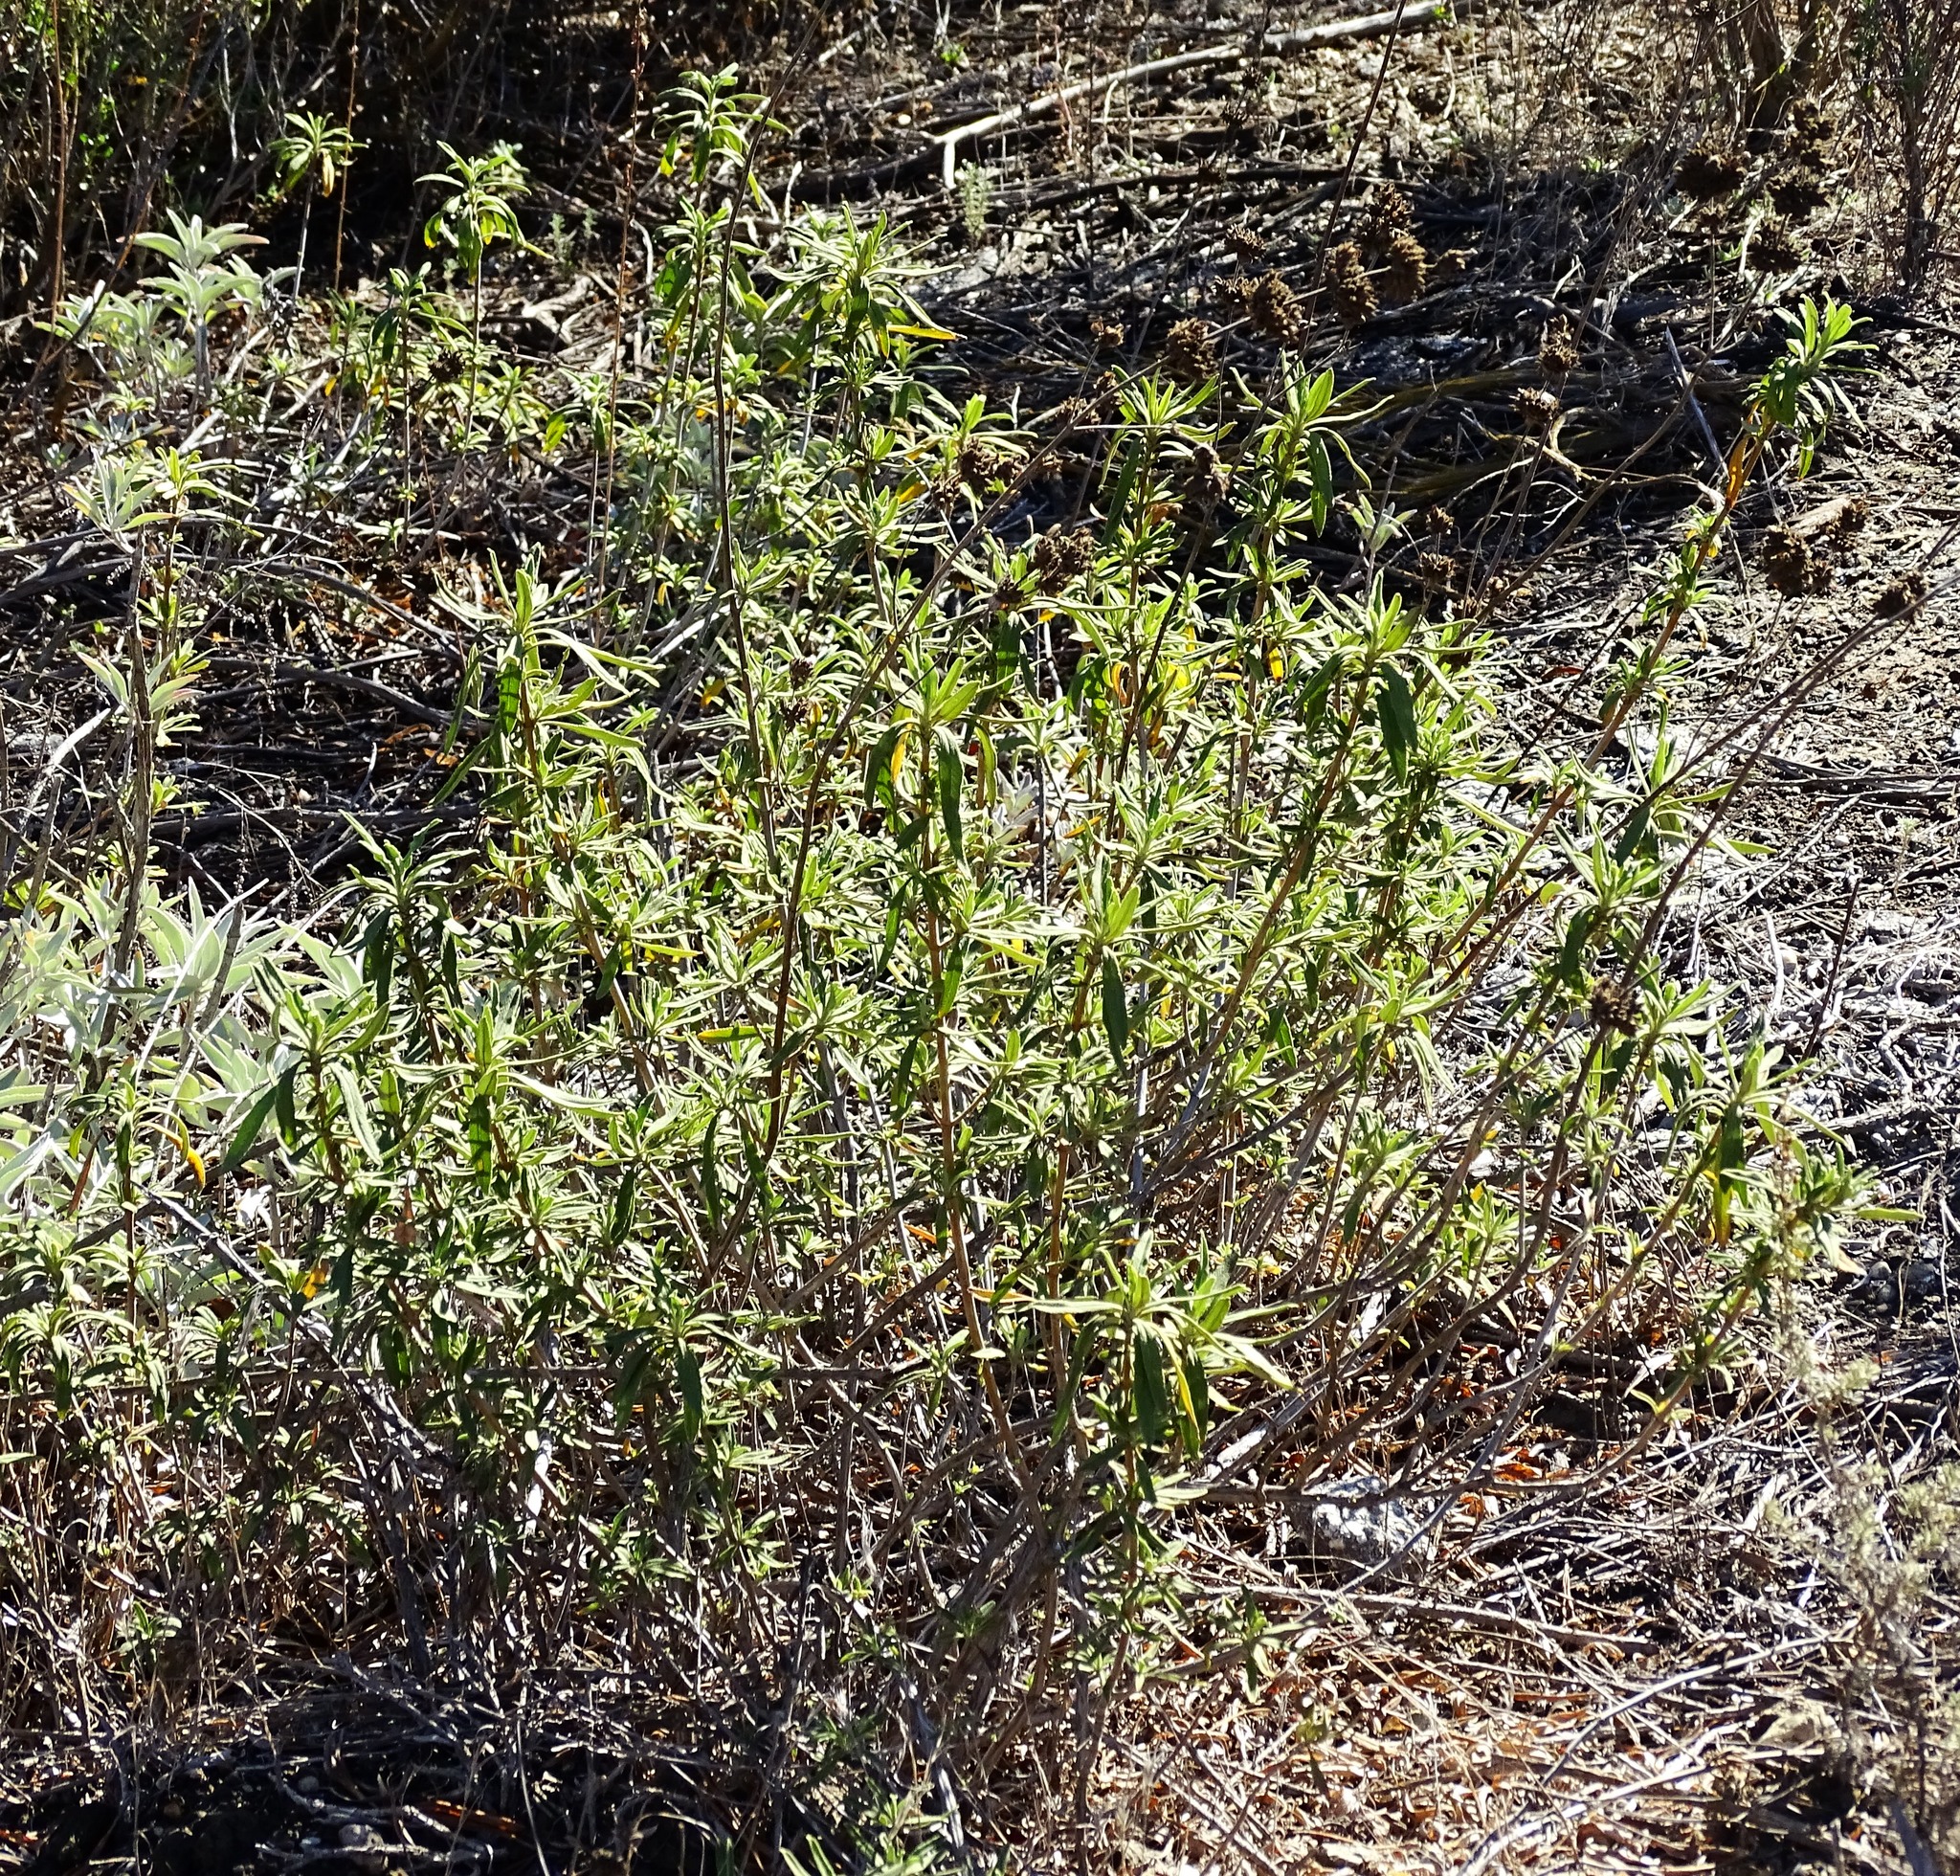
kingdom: Plantae
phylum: Tracheophyta
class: Magnoliopsida
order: Lamiales
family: Lamiaceae
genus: Salvia
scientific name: Salvia mellifera
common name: Black sage
